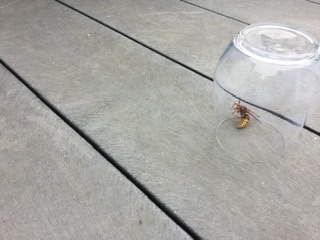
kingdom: Animalia
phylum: Arthropoda
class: Insecta
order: Hymenoptera
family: Vespidae
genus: Vespa
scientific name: Vespa crabro
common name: Hornet
